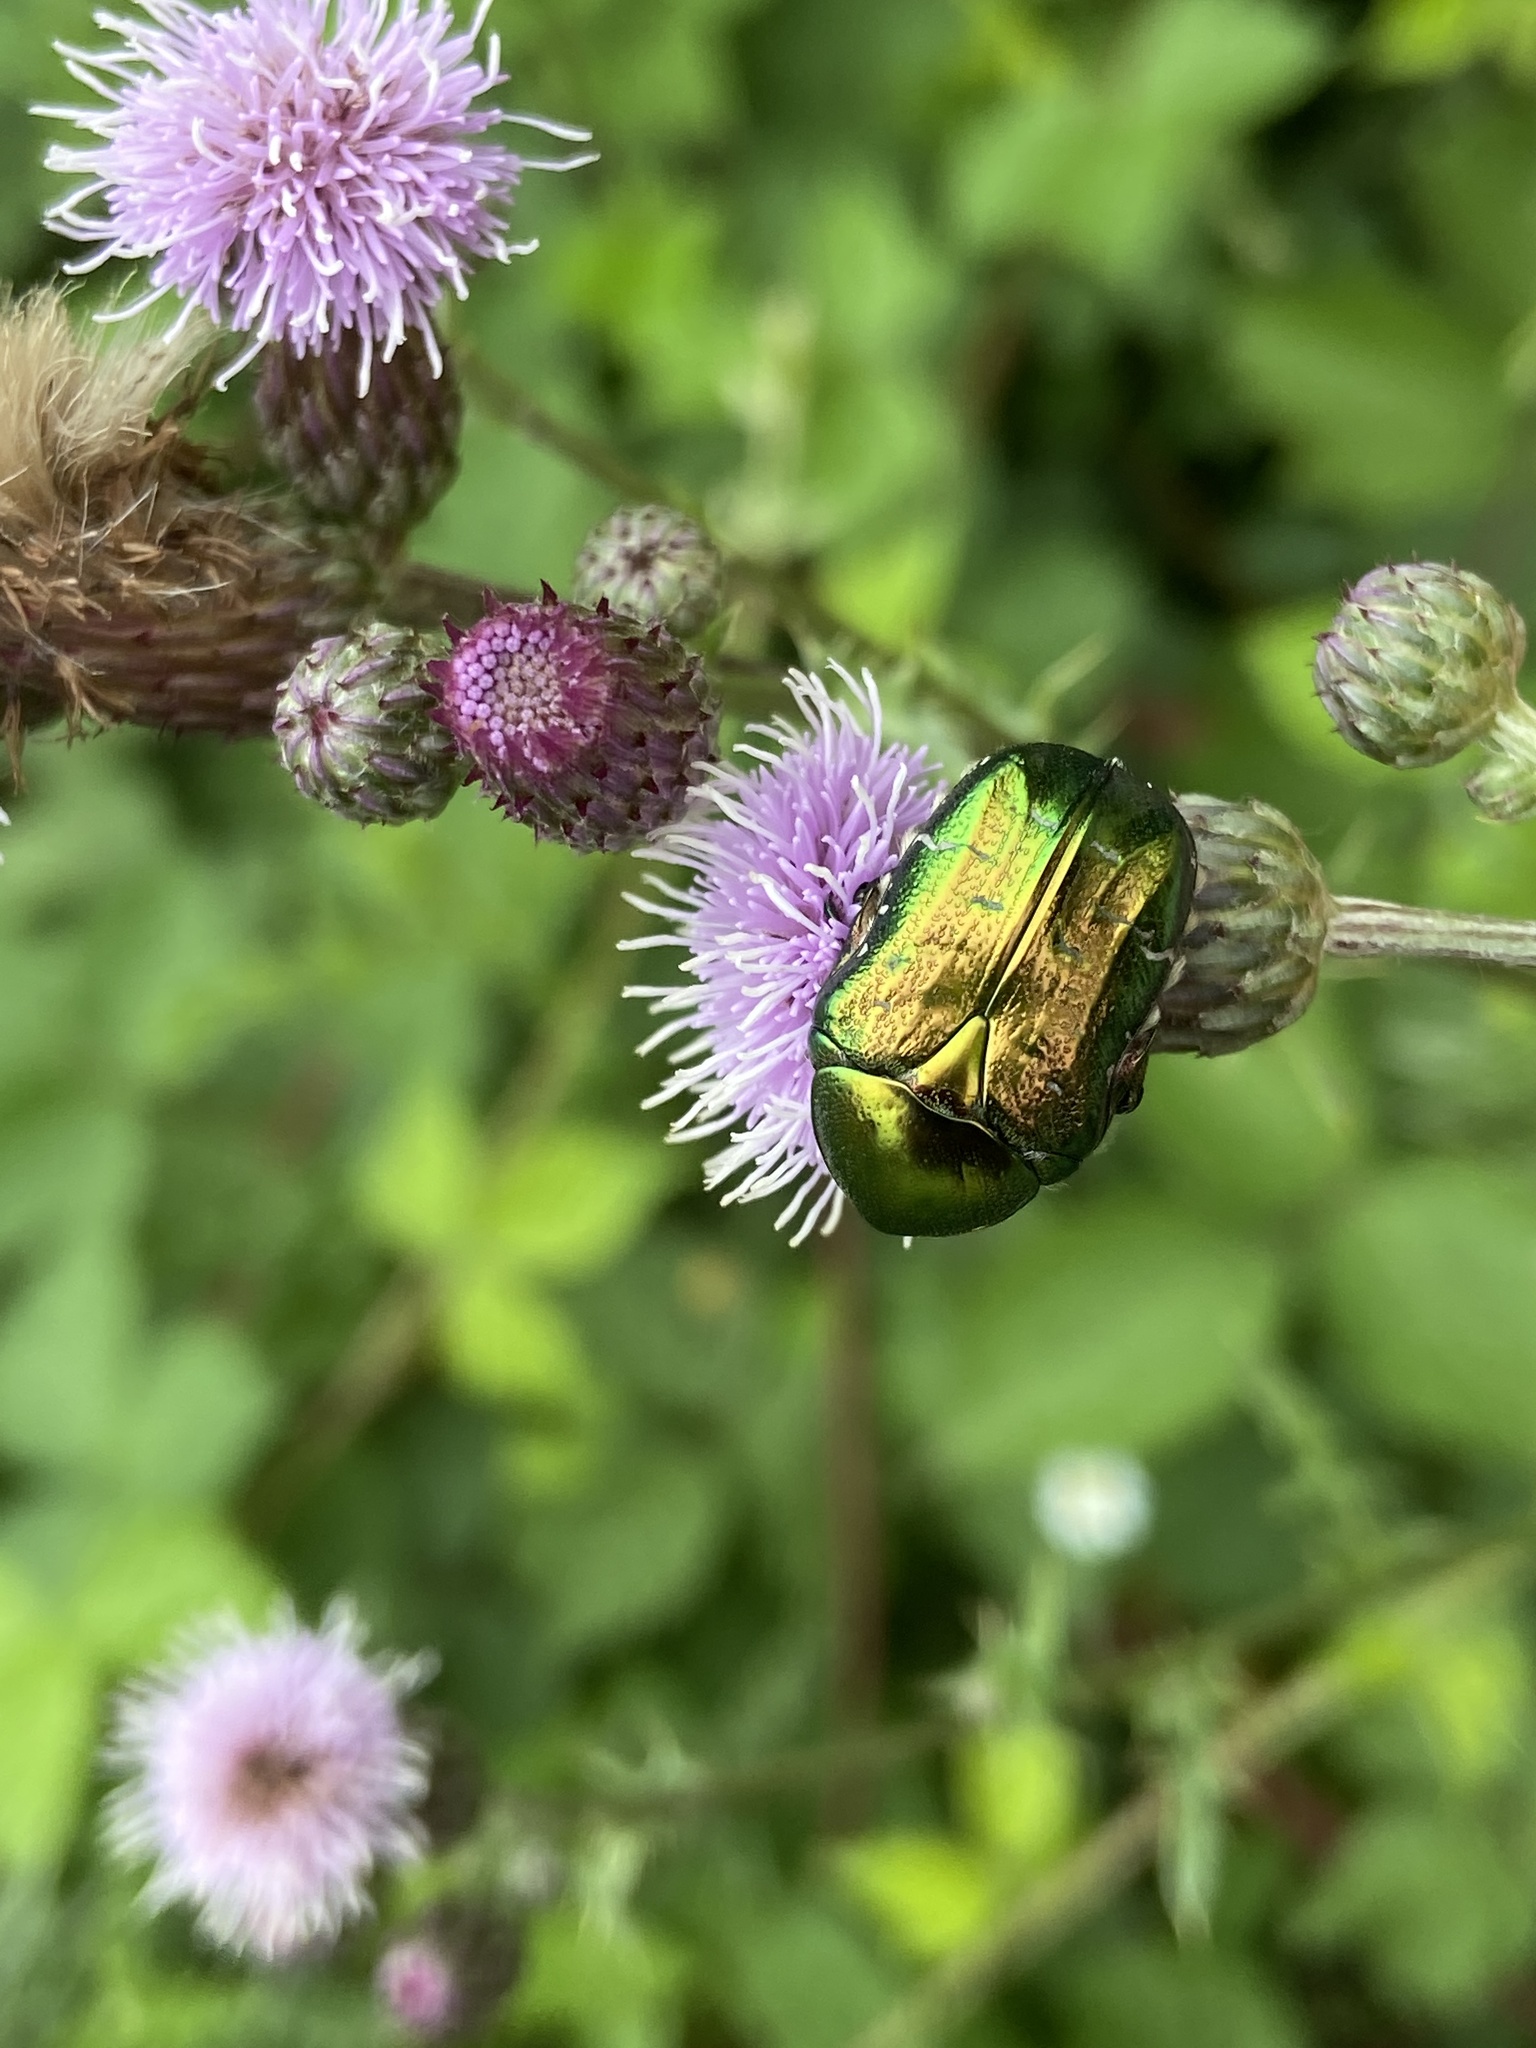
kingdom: Animalia
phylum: Arthropoda
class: Insecta
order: Coleoptera
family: Scarabaeidae
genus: Cetonia
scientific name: Cetonia aurata
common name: Rose chafer
